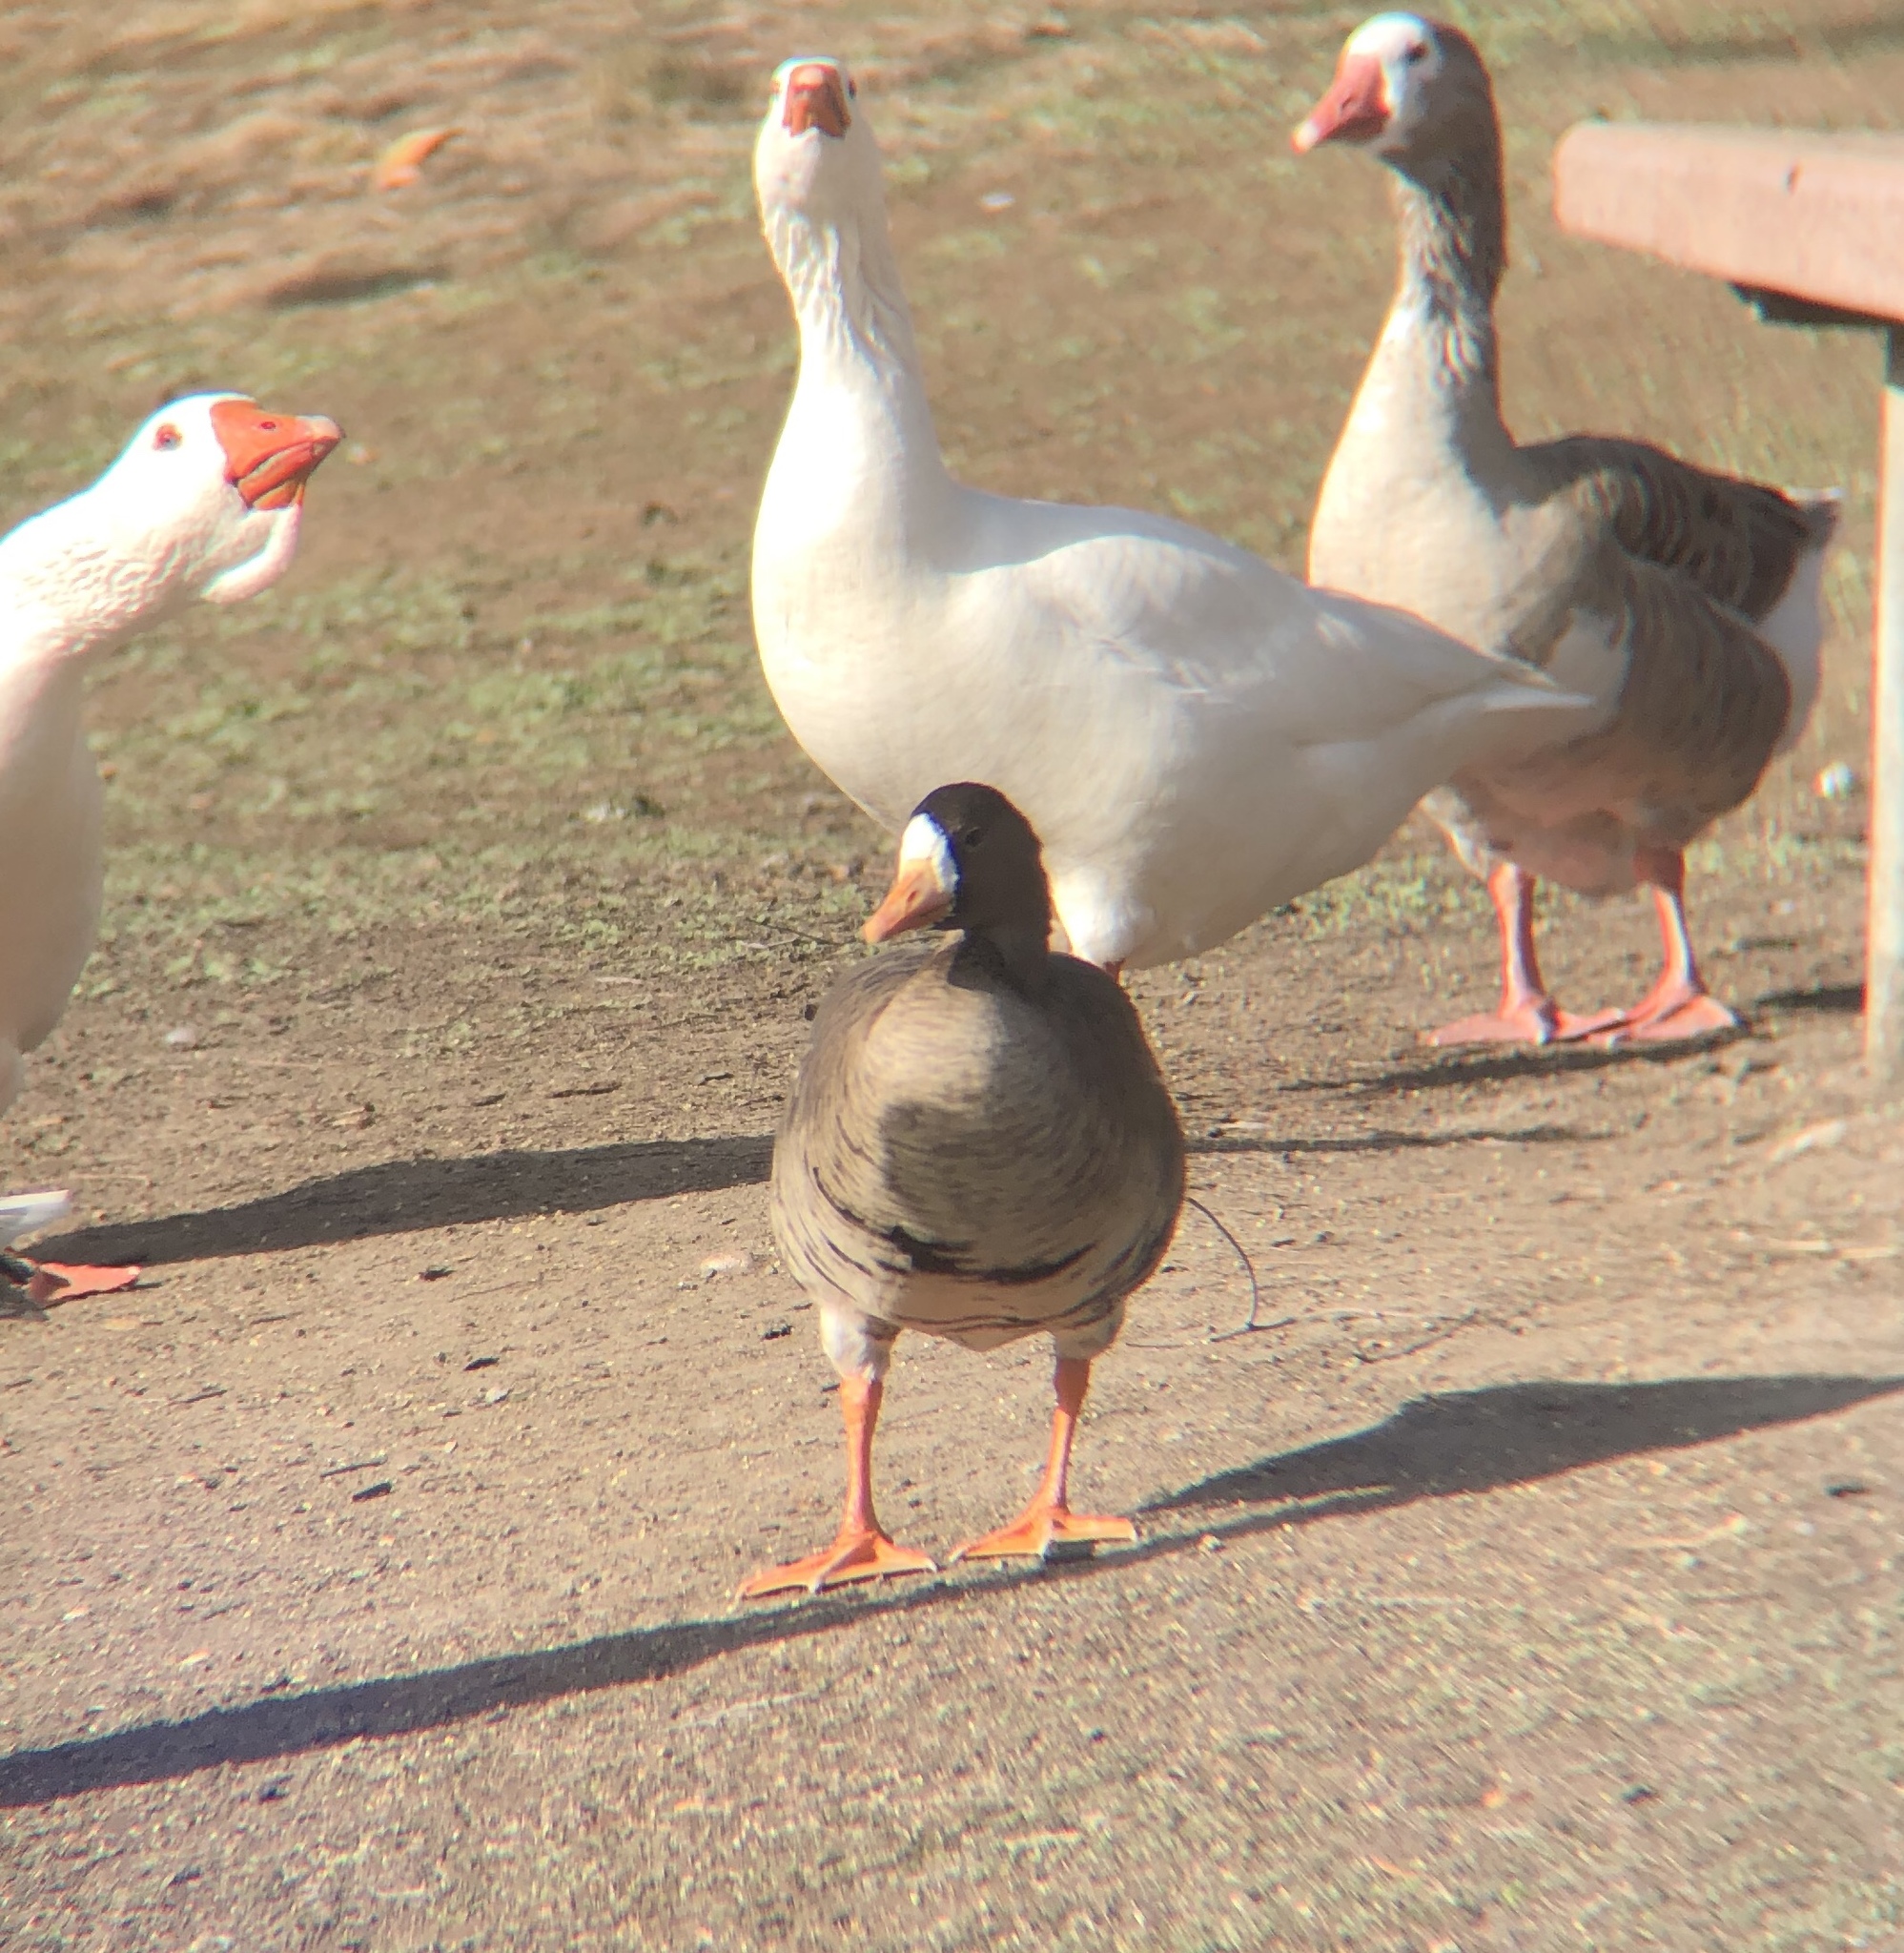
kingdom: Animalia
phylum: Chordata
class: Aves
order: Anseriformes
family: Anatidae
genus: Anser
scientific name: Anser albifrons
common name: Greater white-fronted goose
